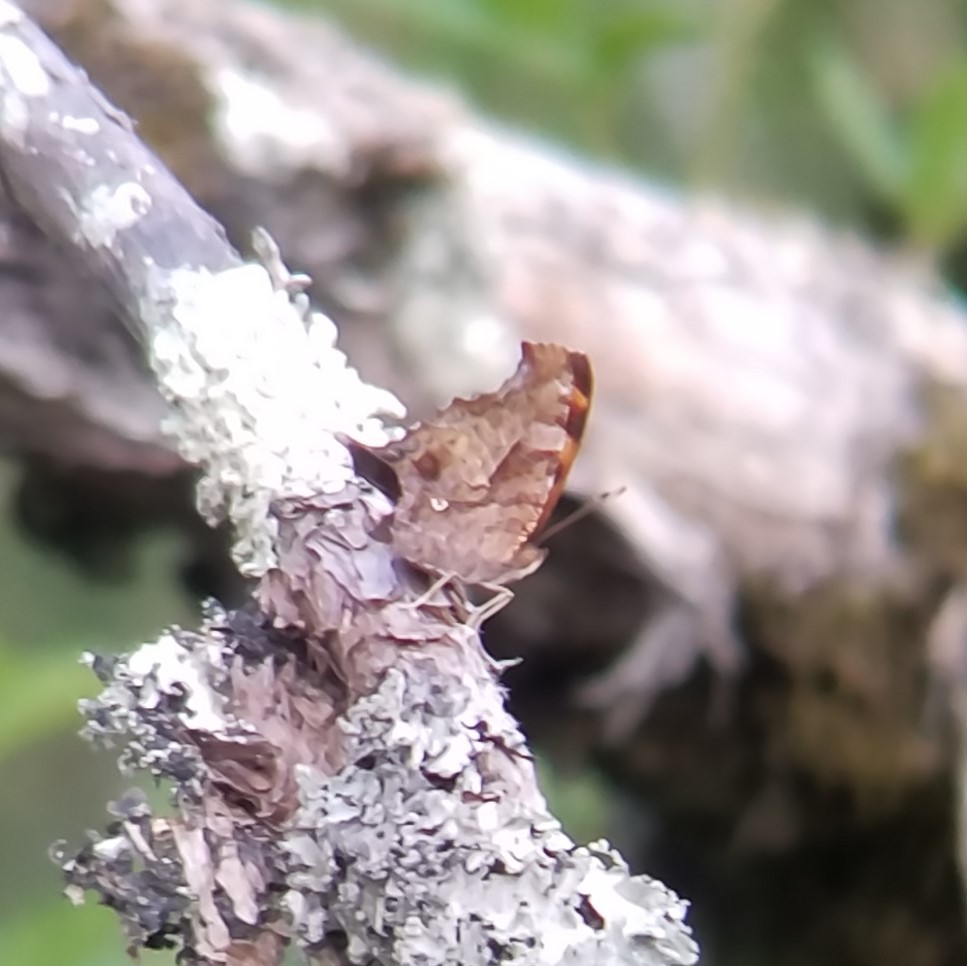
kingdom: Animalia
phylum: Arthropoda
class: Insecta
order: Lepidoptera
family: Nymphalidae
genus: Polygonia
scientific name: Polygonia comma
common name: Eastern comma
